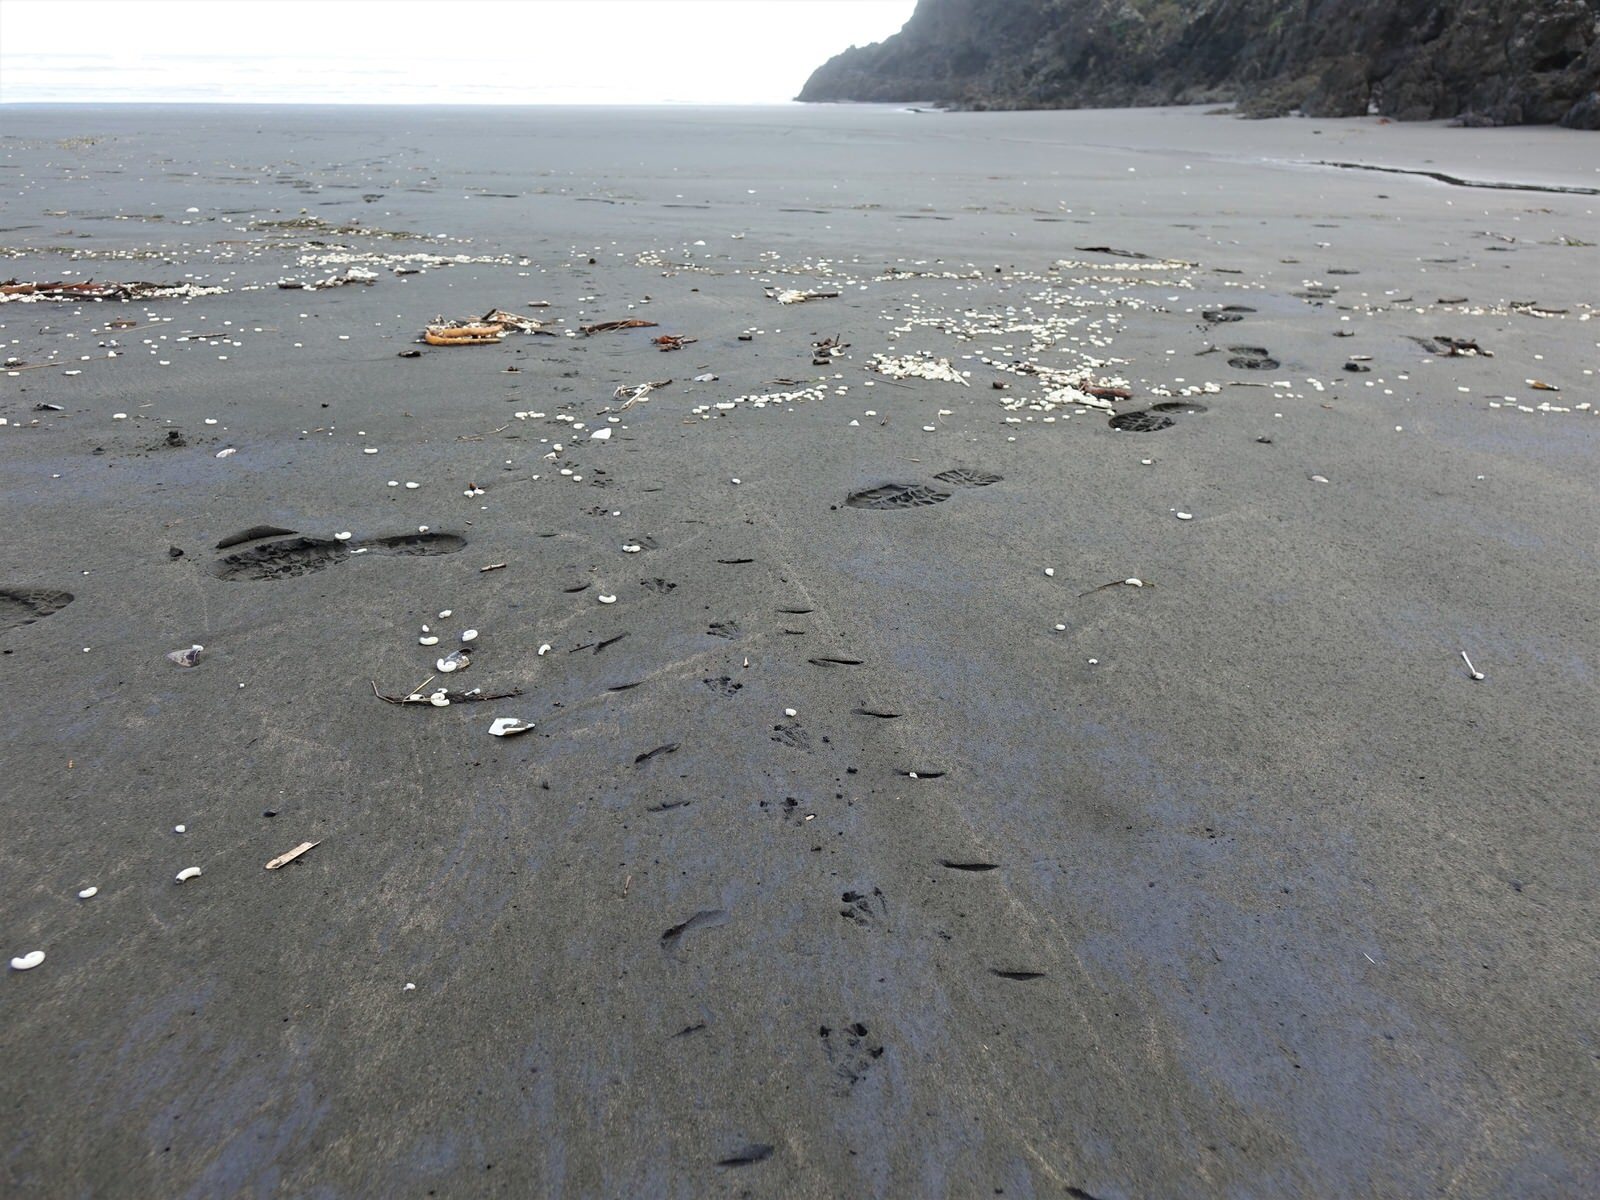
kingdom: Animalia
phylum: Chordata
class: Aves
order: Sphenisciformes
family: Spheniscidae
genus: Eudyptula
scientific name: Eudyptula minor
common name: Little penguin
